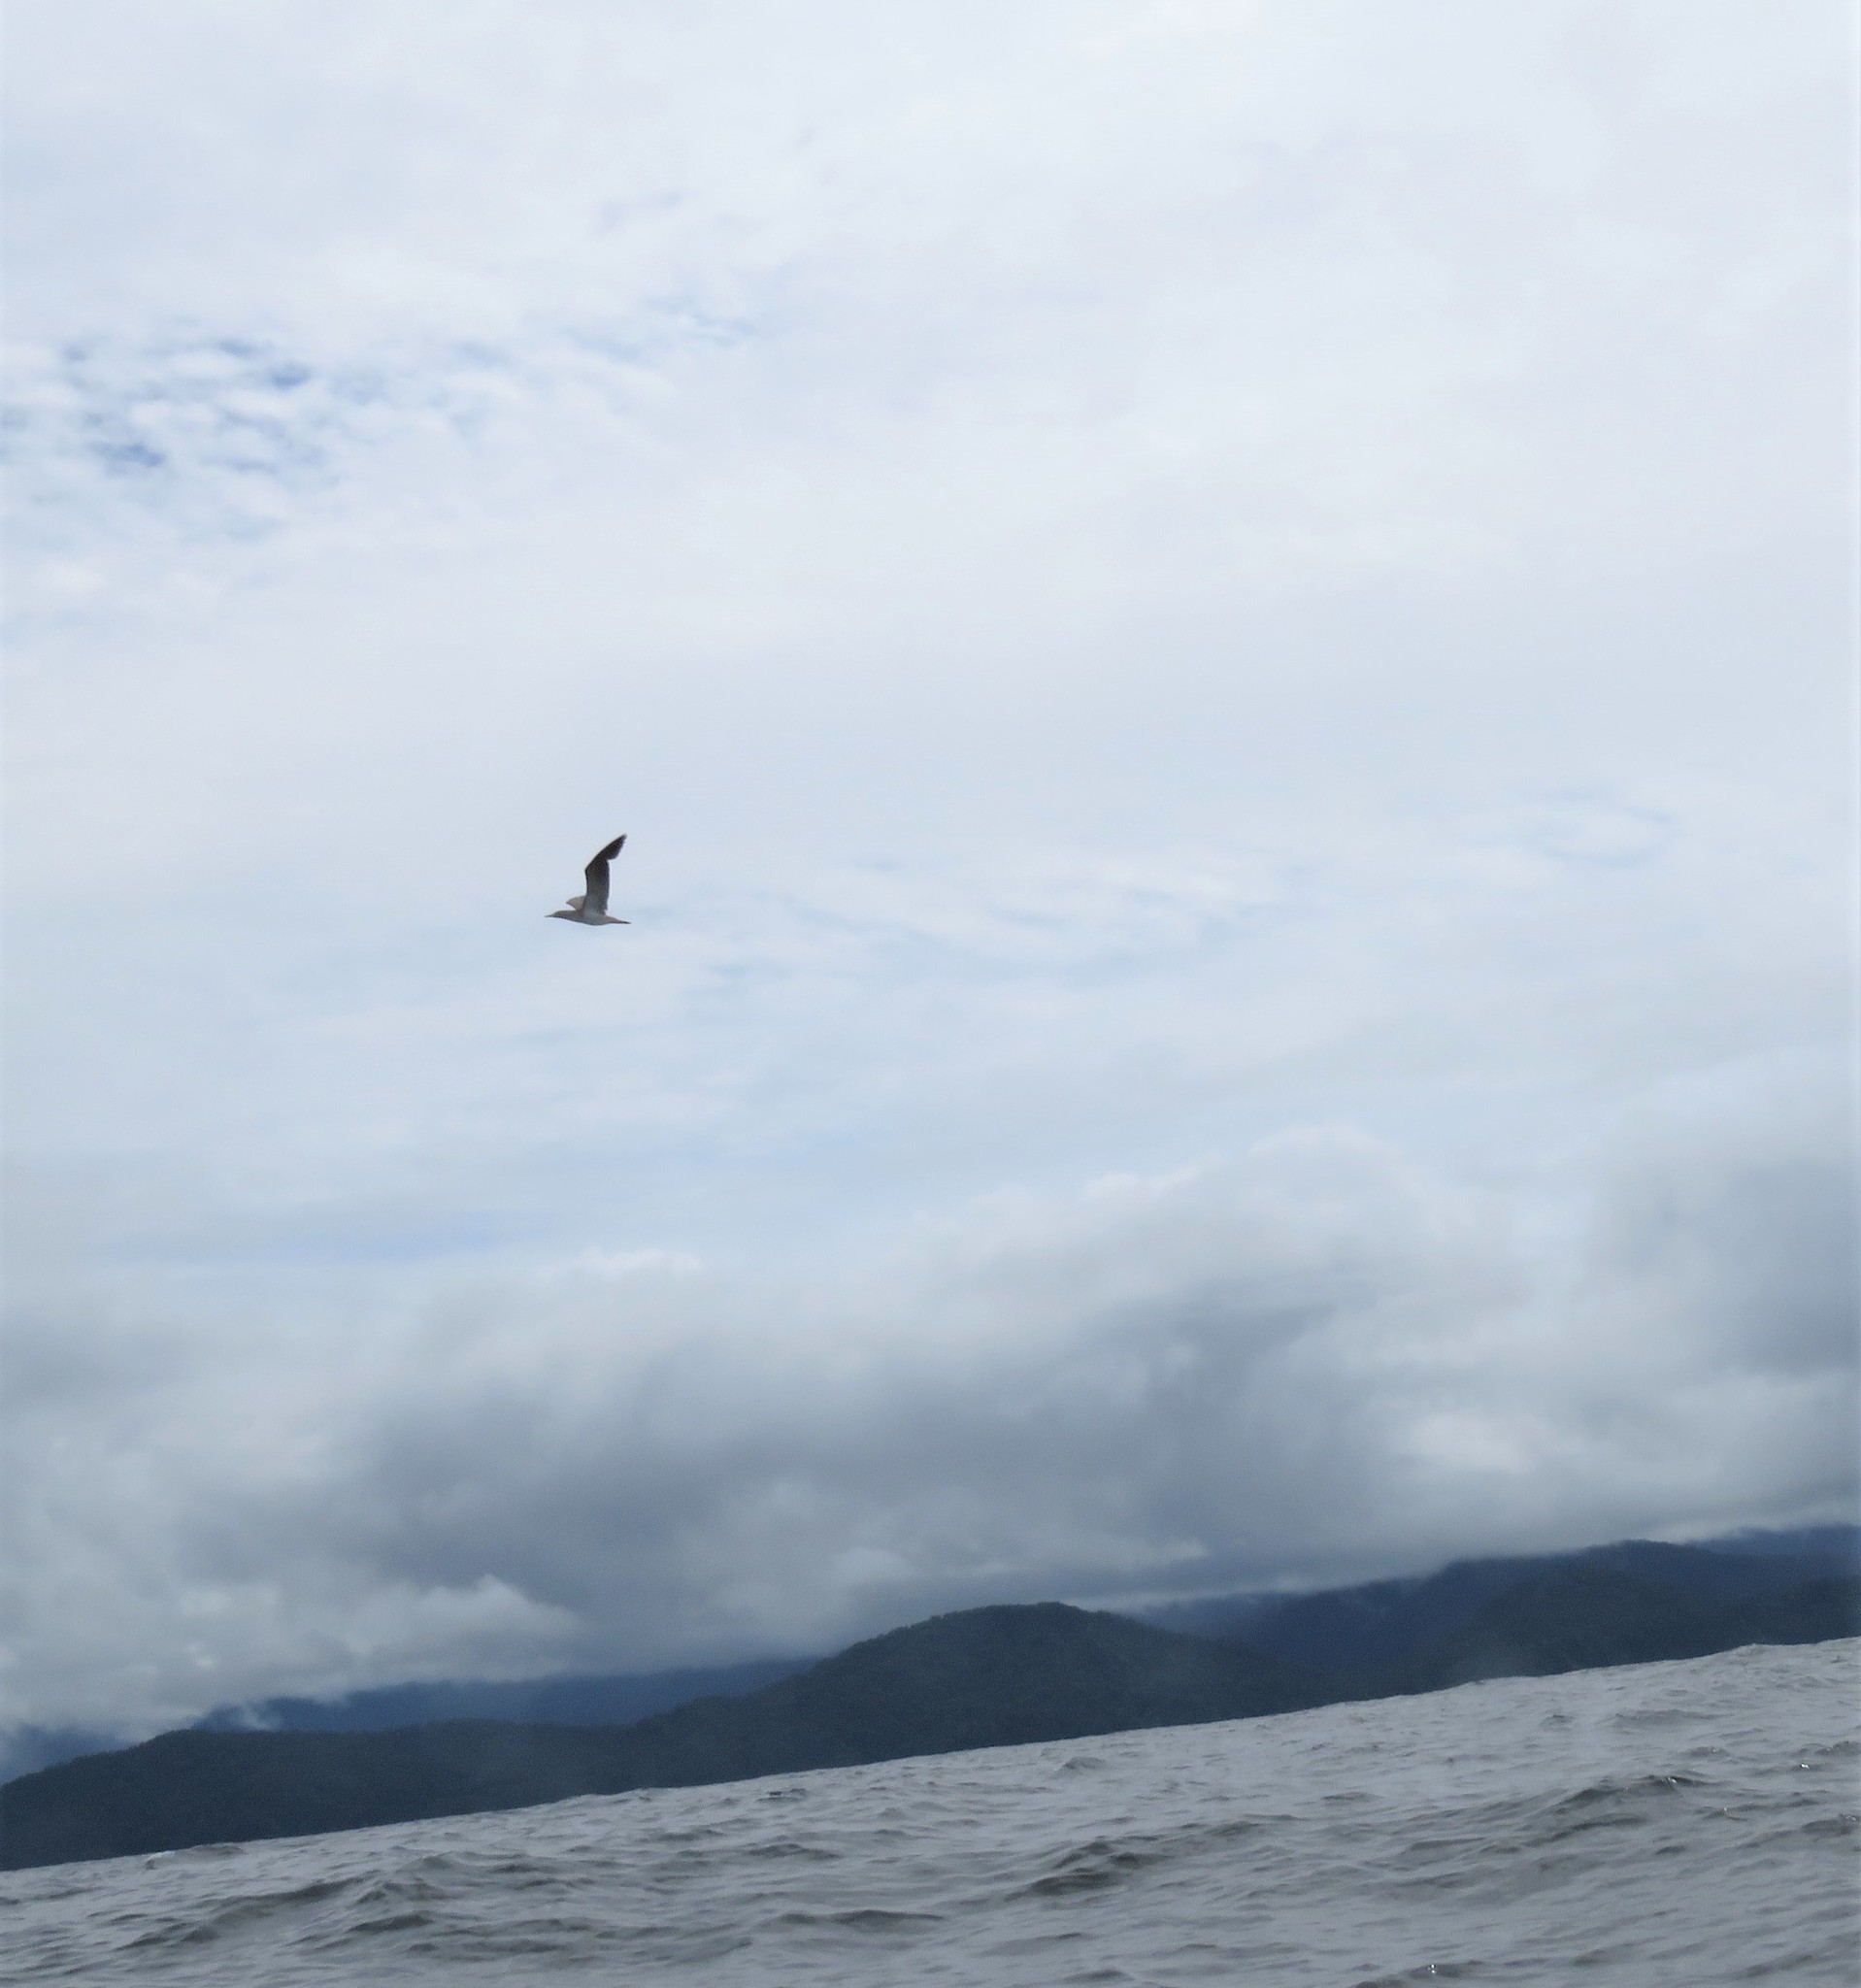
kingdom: Animalia
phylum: Chordata
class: Aves
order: Suliformes
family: Sulidae
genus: Sula
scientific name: Sula leucogaster
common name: Brown booby
